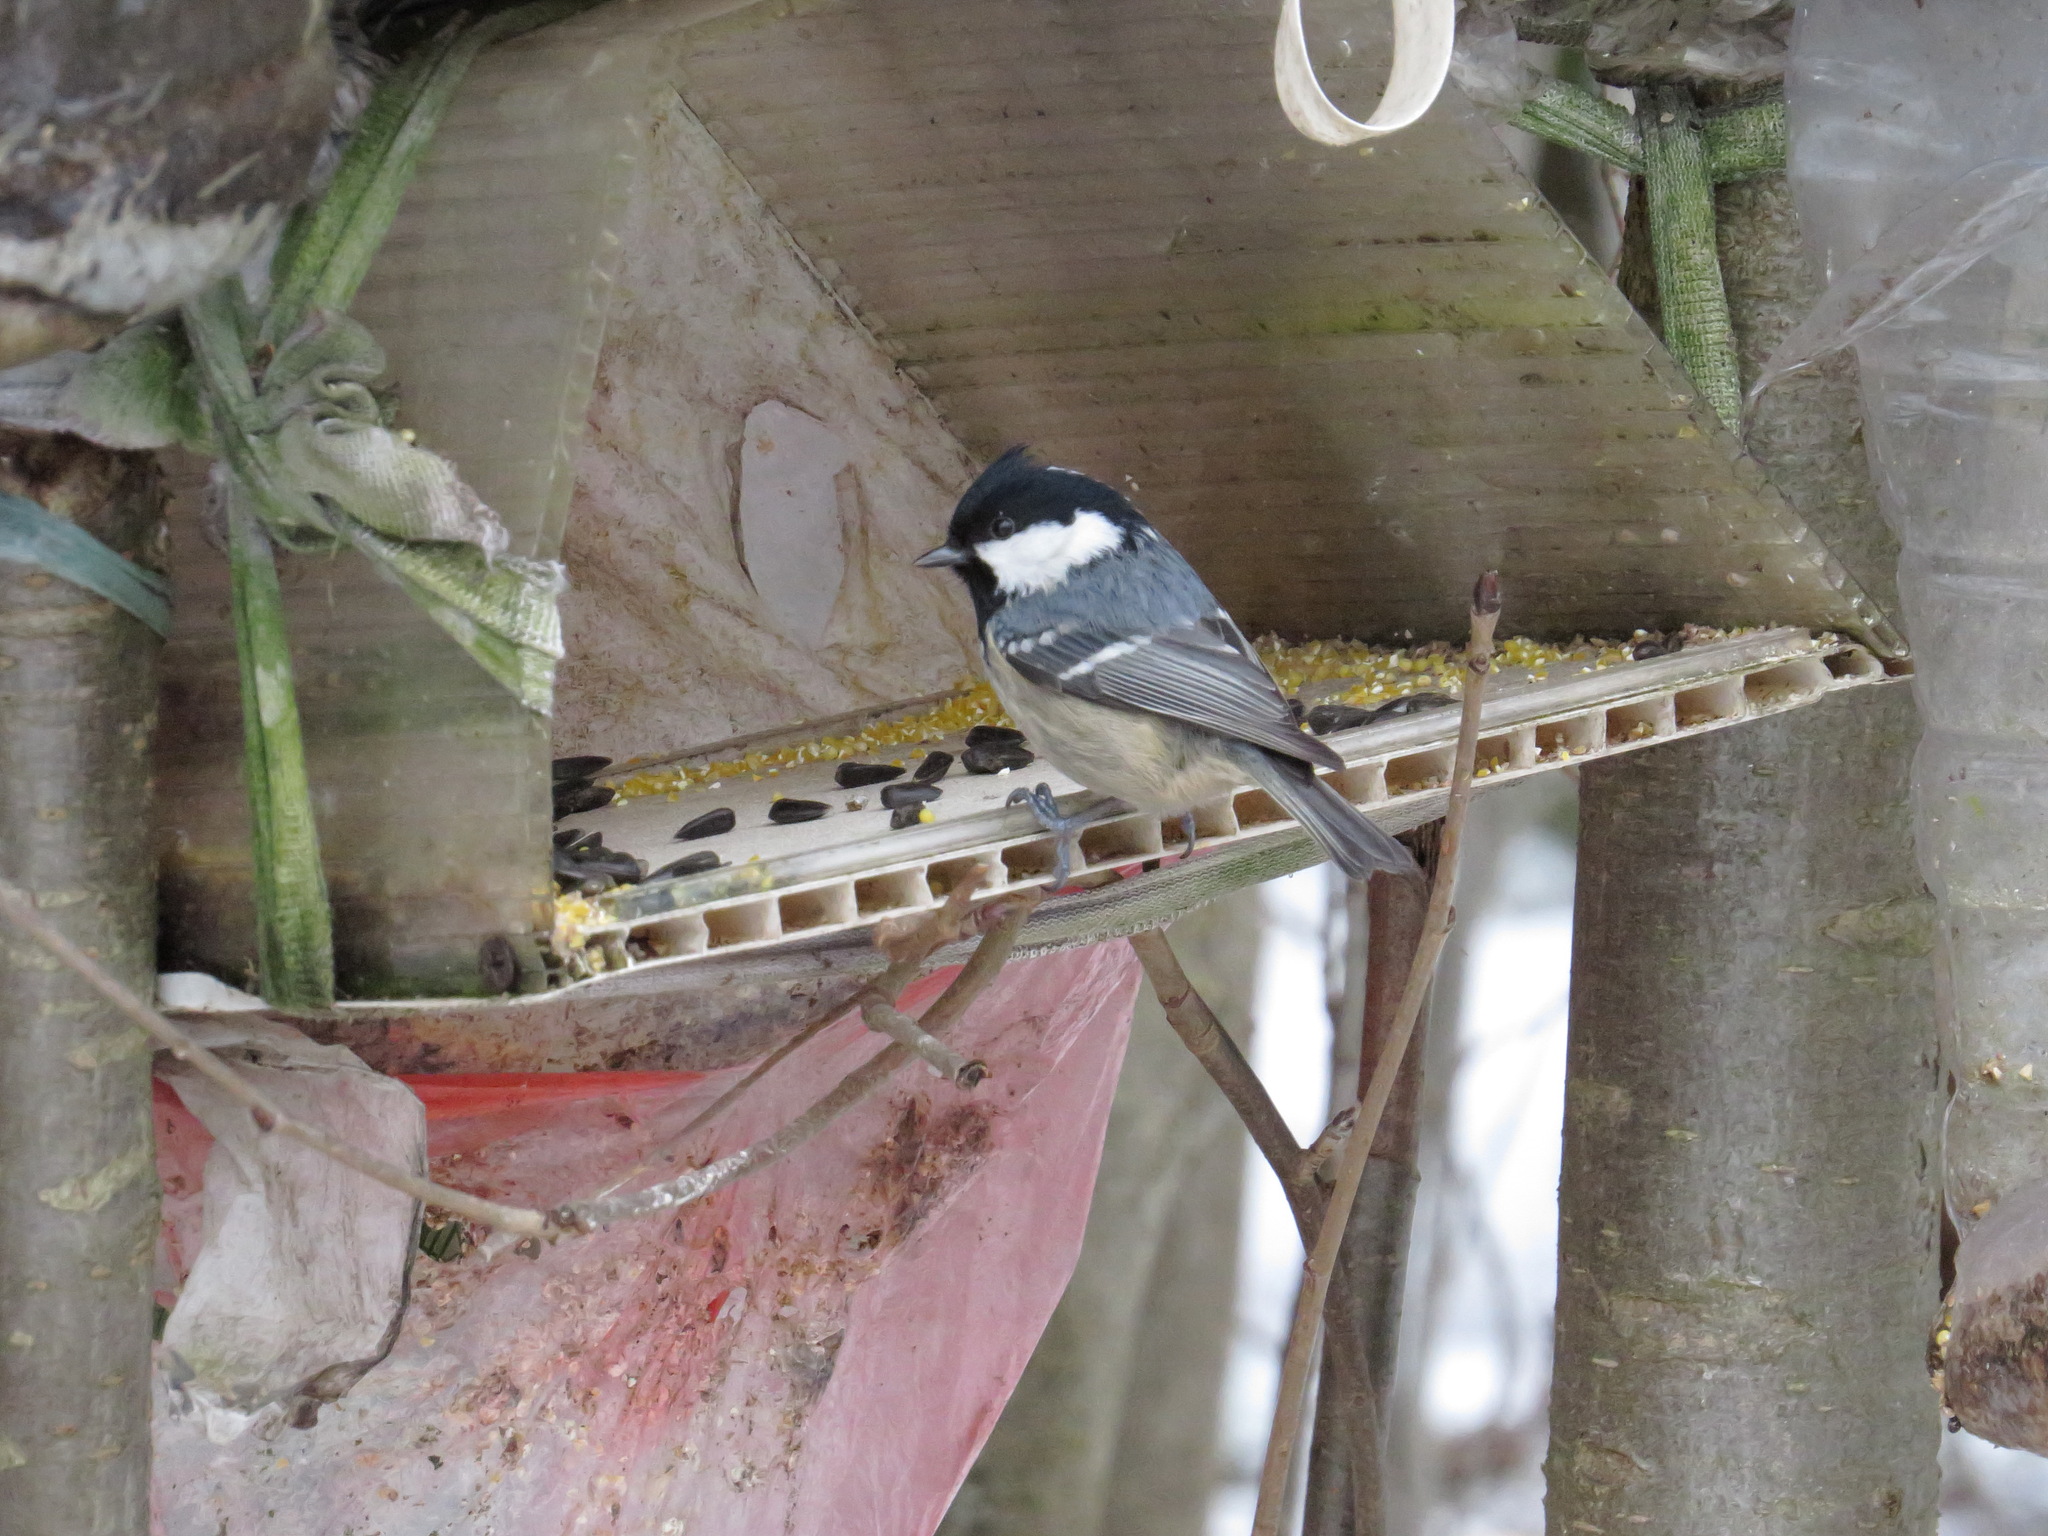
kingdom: Animalia
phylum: Chordata
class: Aves
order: Passeriformes
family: Paridae
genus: Periparus
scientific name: Periparus ater
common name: Coal tit
